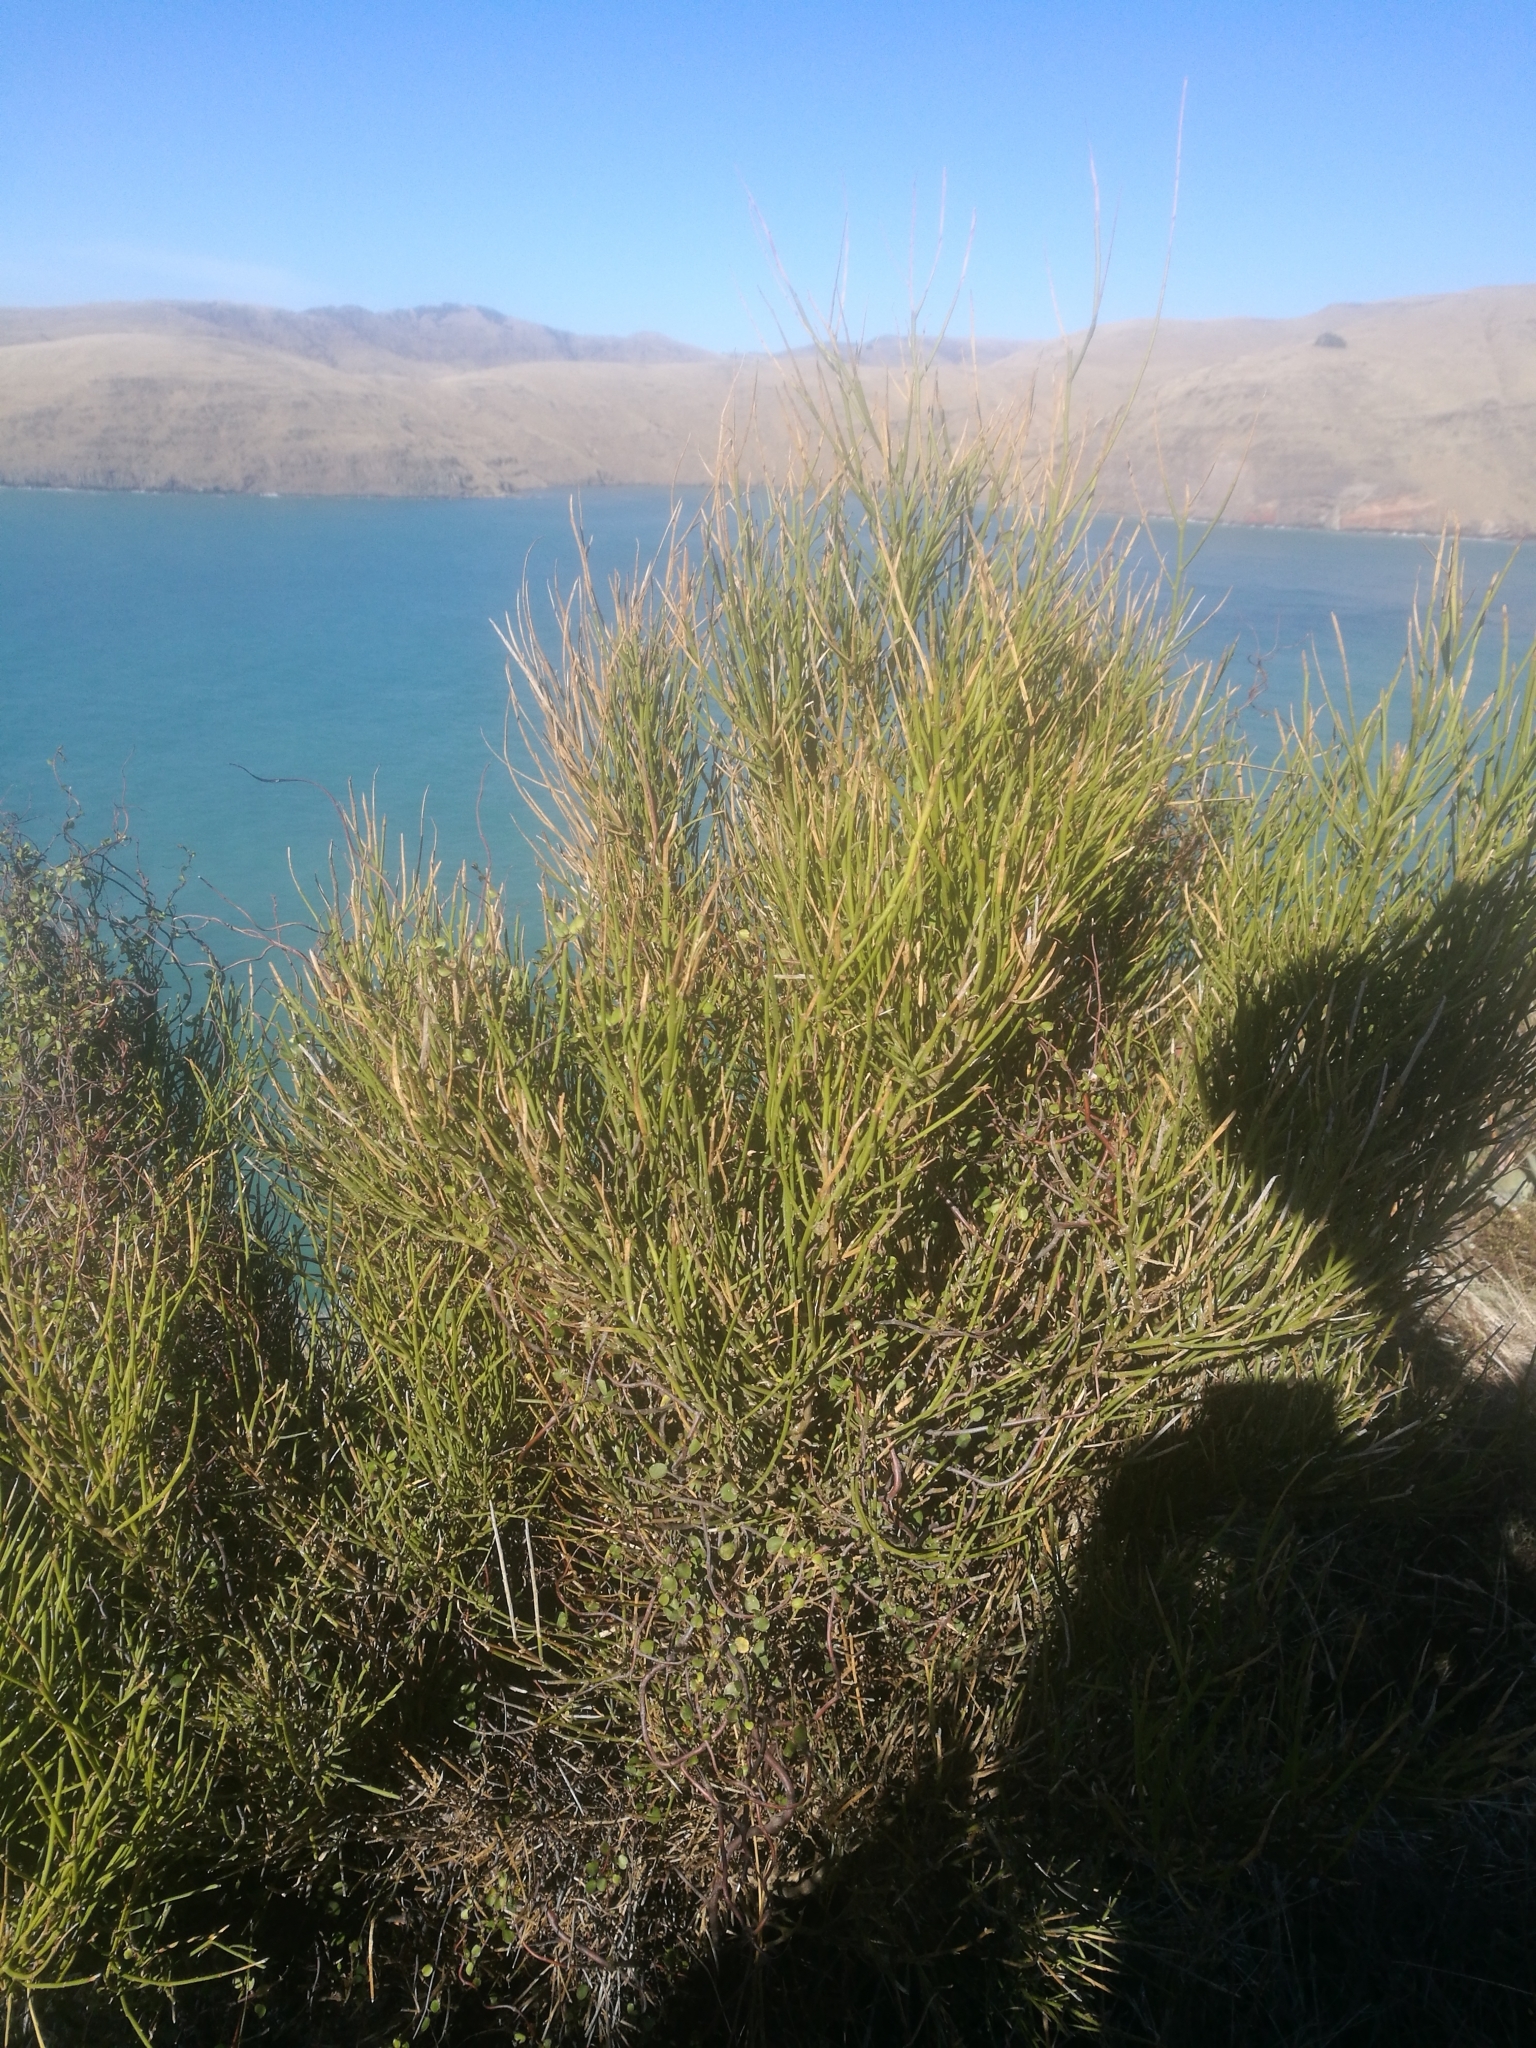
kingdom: Plantae
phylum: Tracheophyta
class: Magnoliopsida
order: Fabales
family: Fabaceae
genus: Carmichaelia
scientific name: Carmichaelia australis
